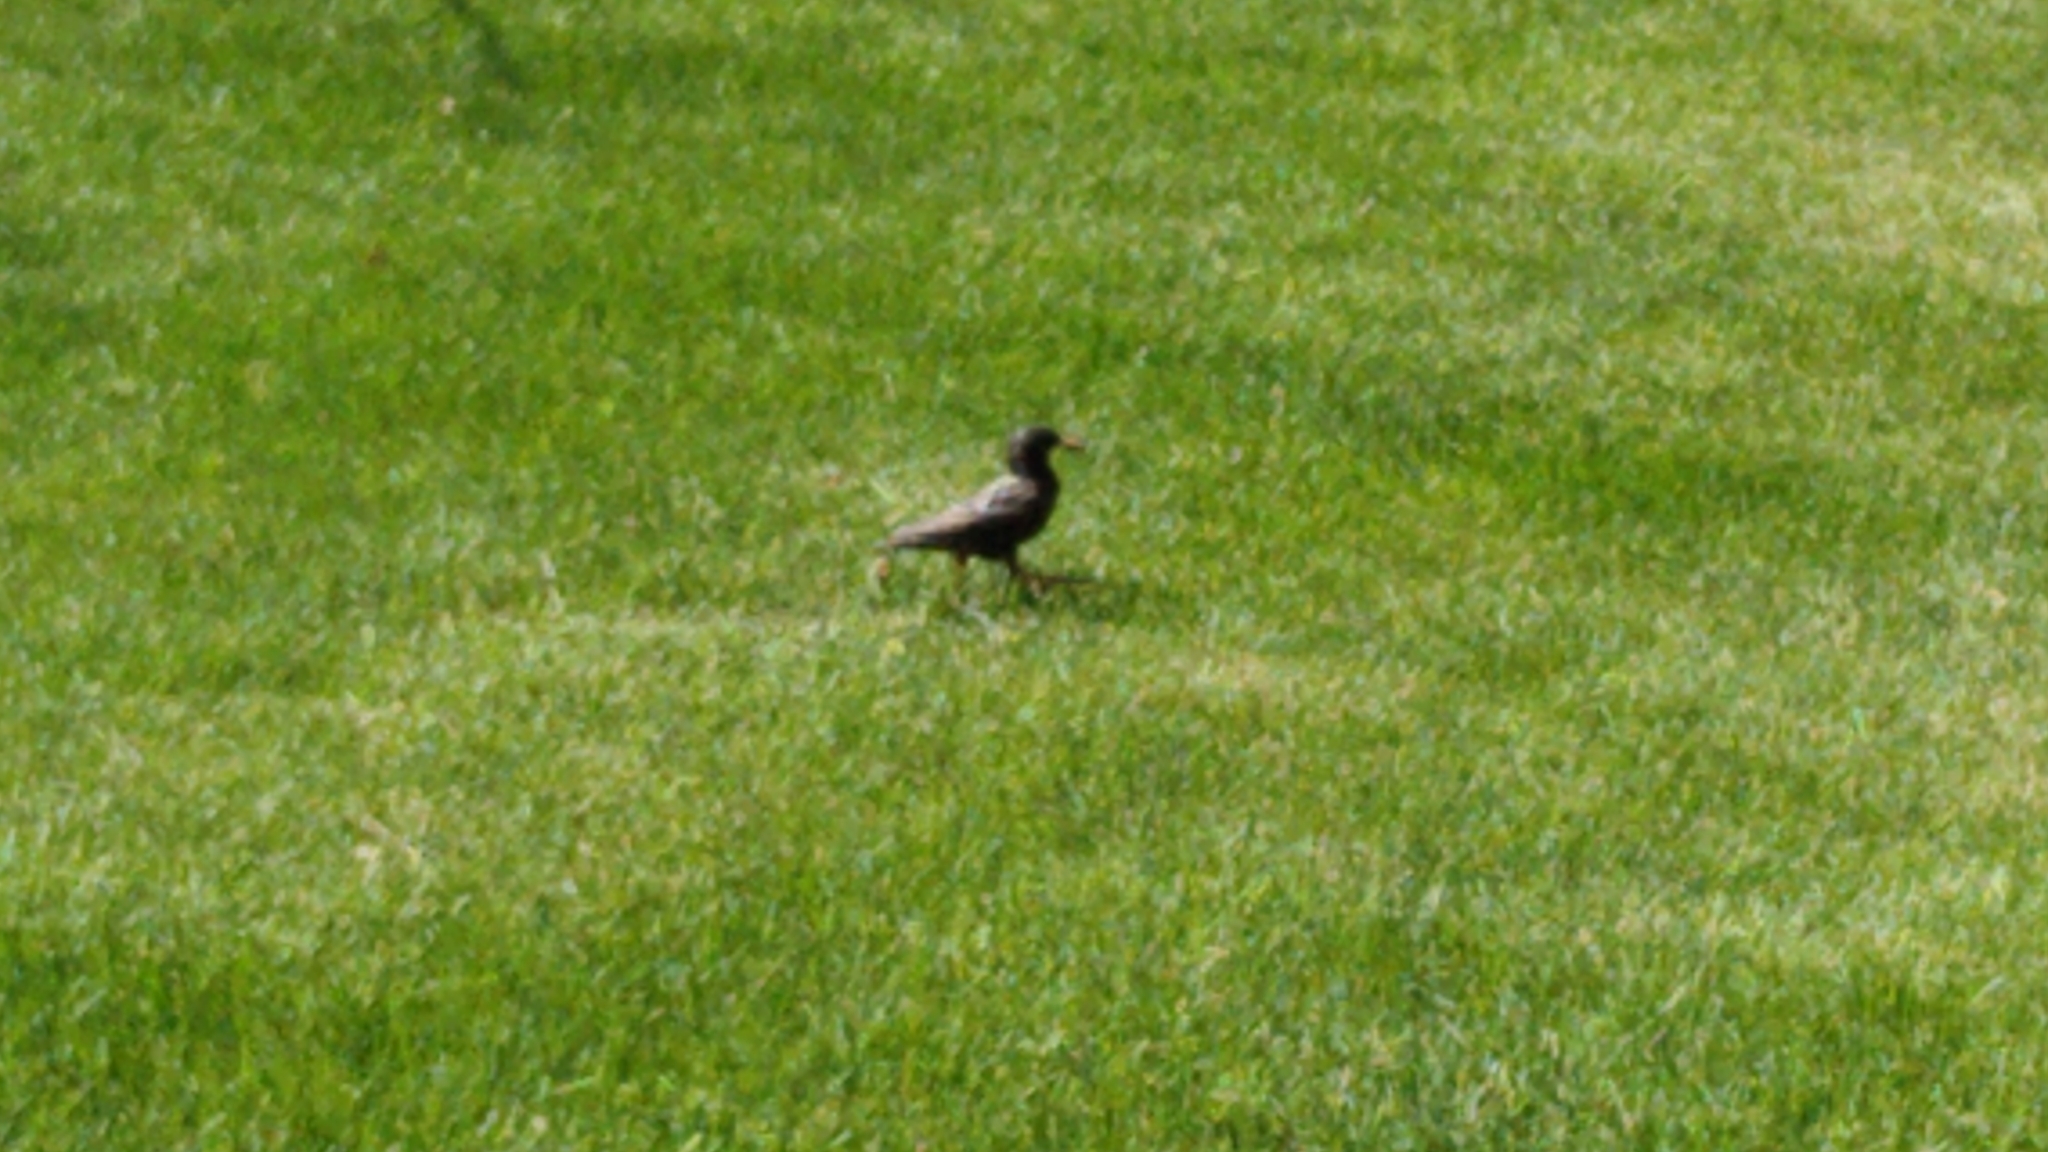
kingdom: Animalia
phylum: Chordata
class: Aves
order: Passeriformes
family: Sturnidae
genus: Sturnus
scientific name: Sturnus vulgaris
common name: Common starling
